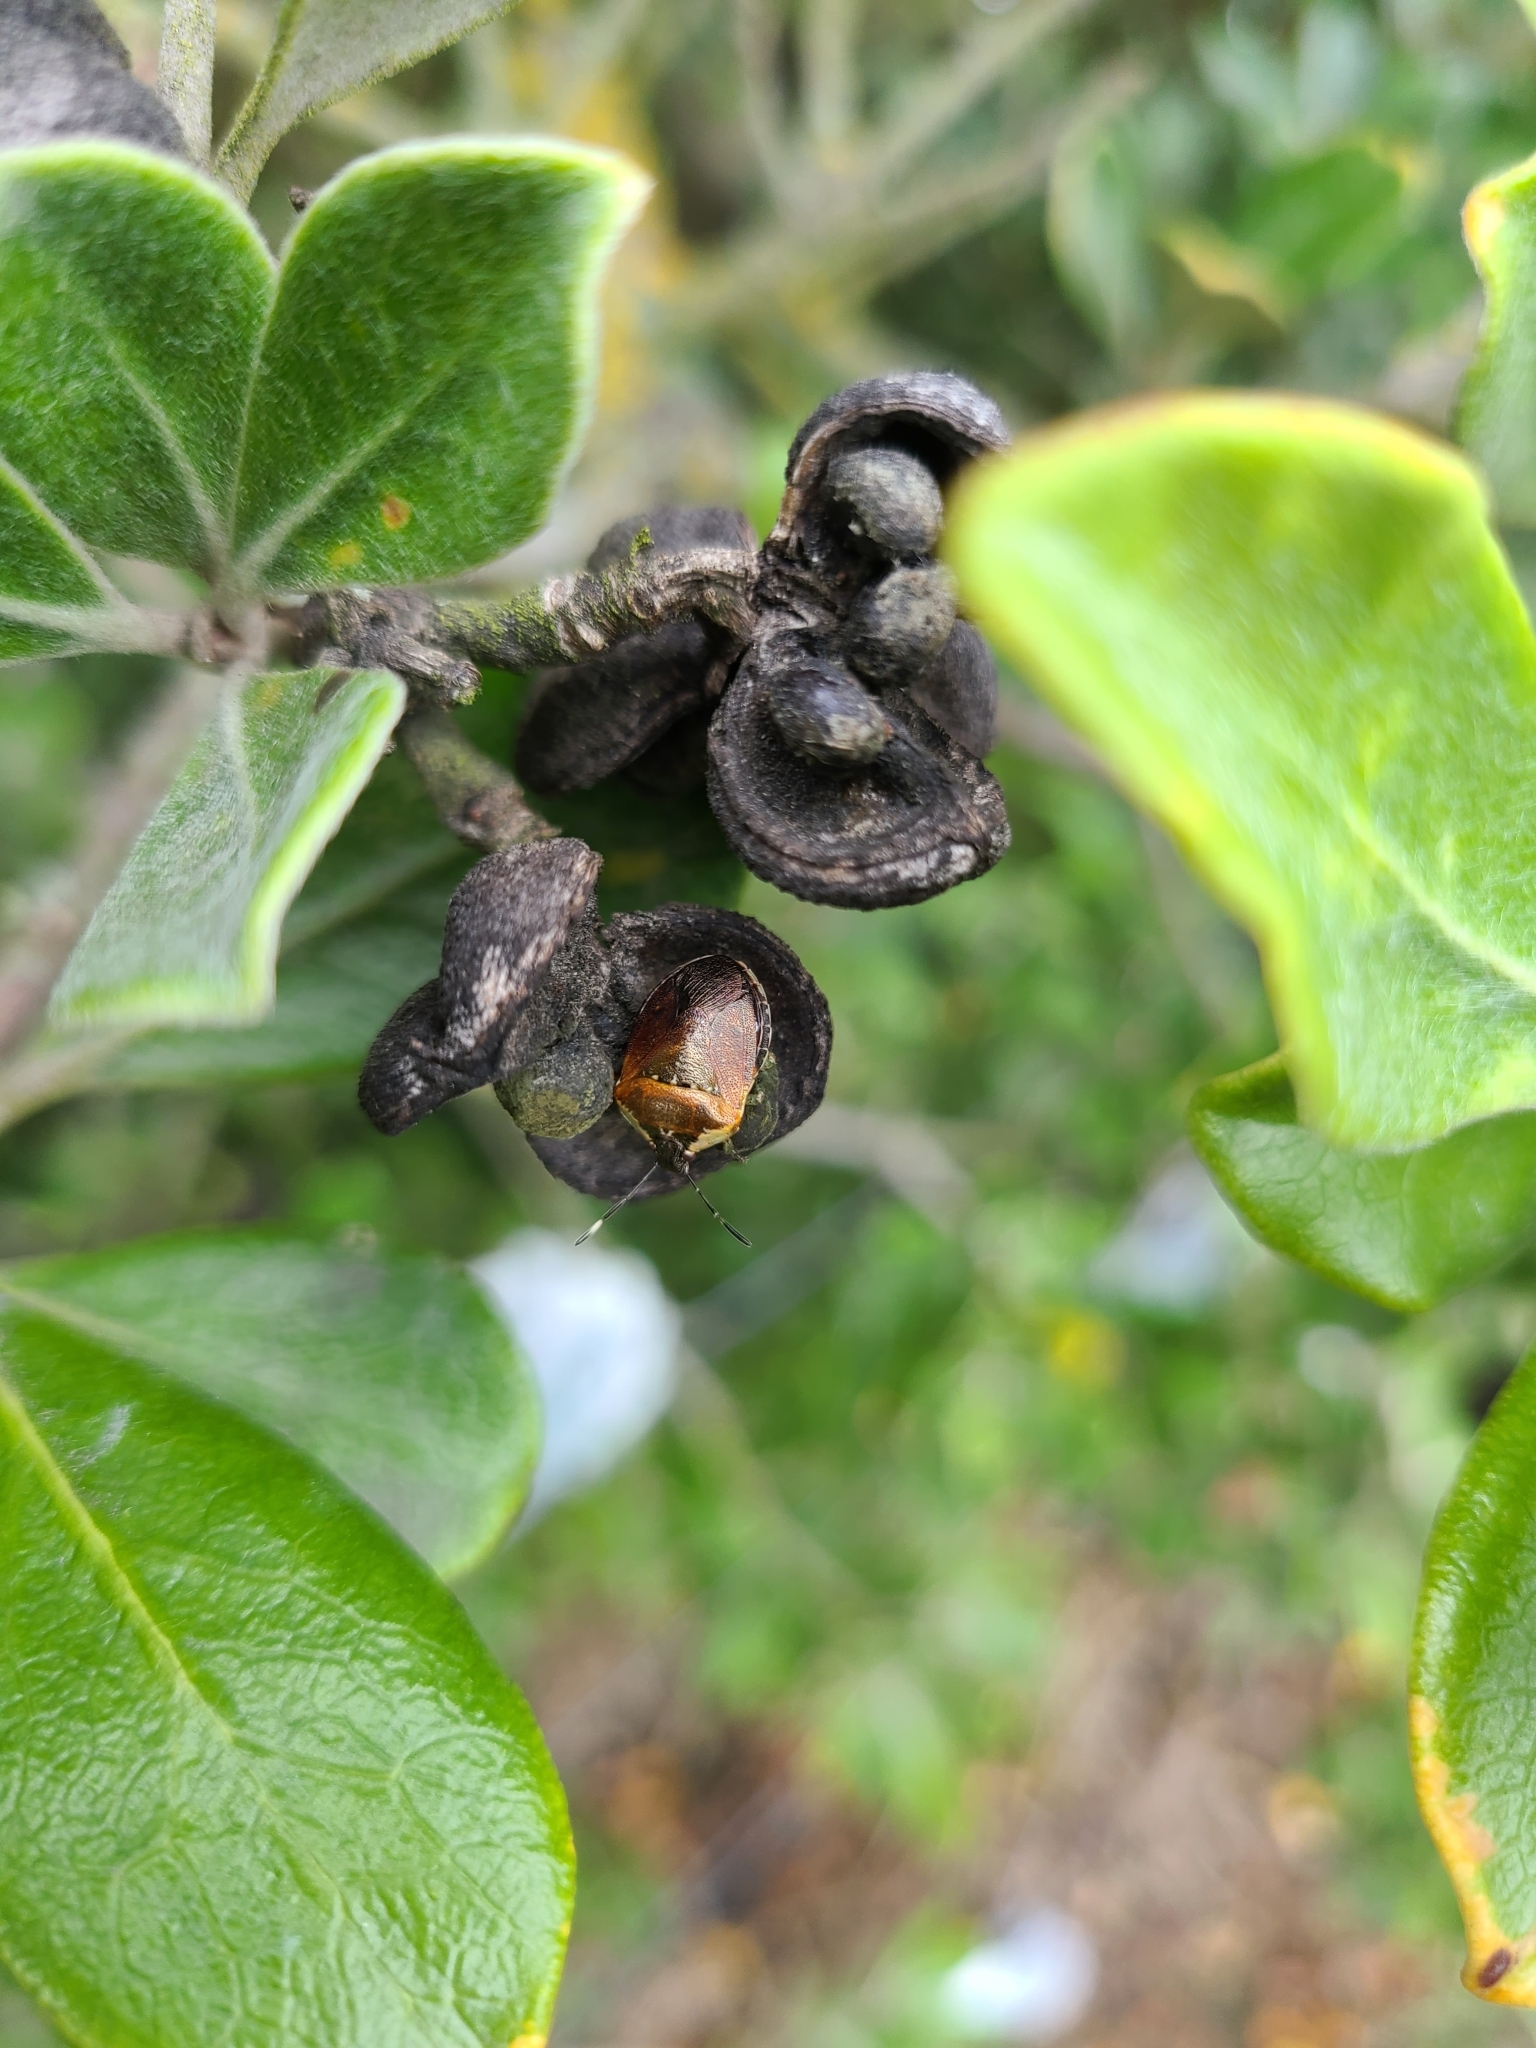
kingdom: Animalia
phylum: Arthropoda
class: Insecta
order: Hemiptera
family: Pentatomidae
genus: Monteithiella
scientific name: Monteithiella
